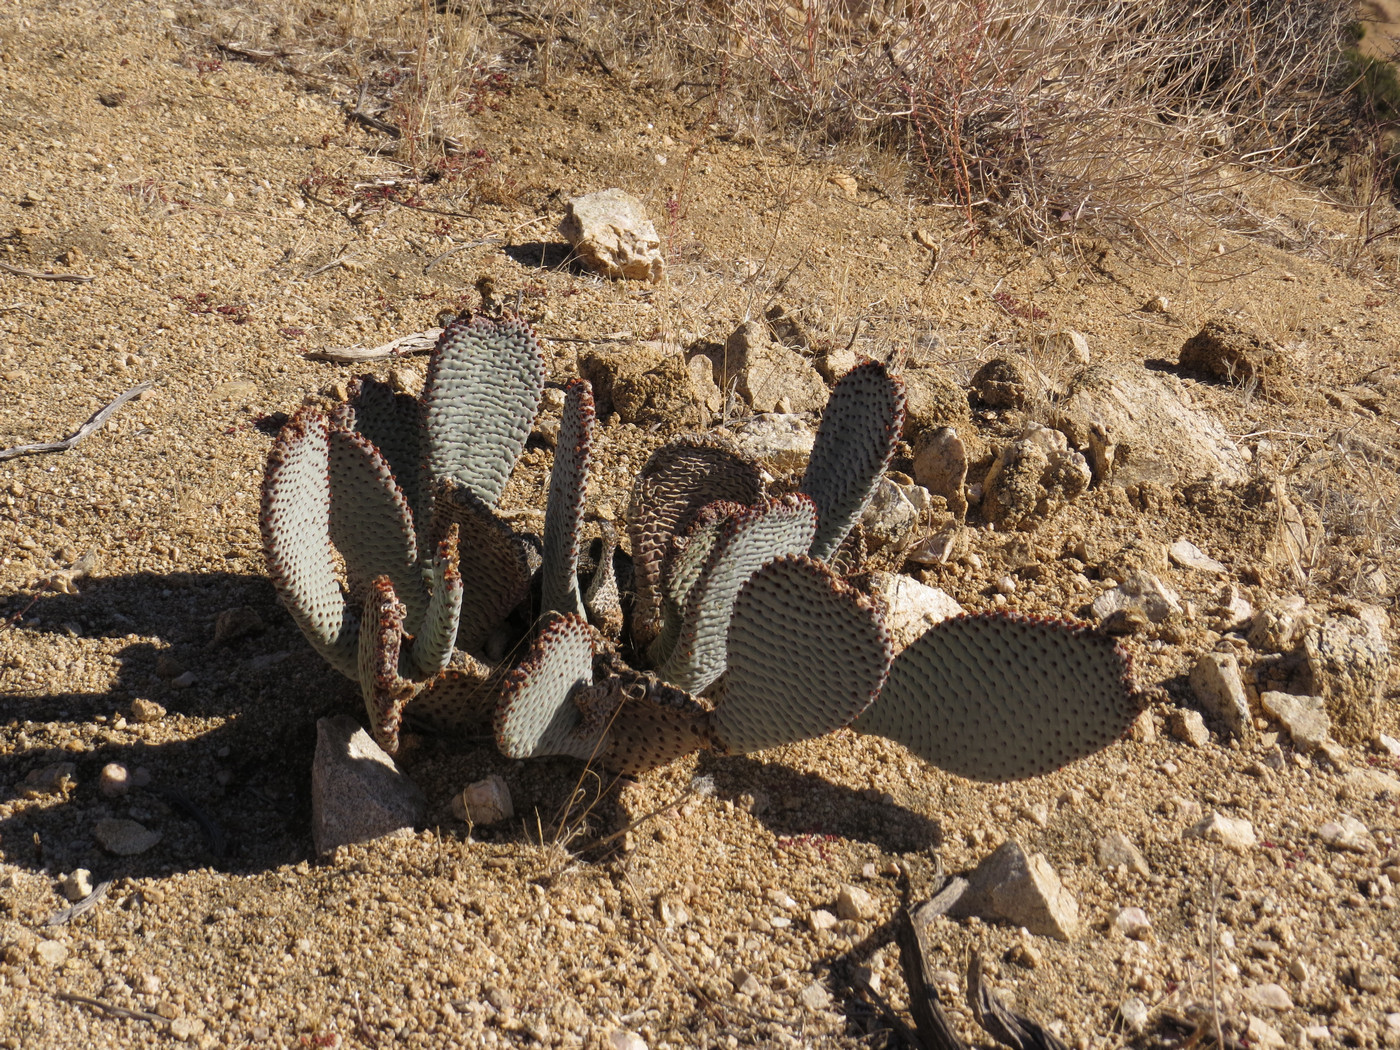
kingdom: Plantae
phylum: Tracheophyta
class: Magnoliopsida
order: Caryophyllales
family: Cactaceae
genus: Opuntia
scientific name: Opuntia basilaris
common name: Beavertail prickly-pear
